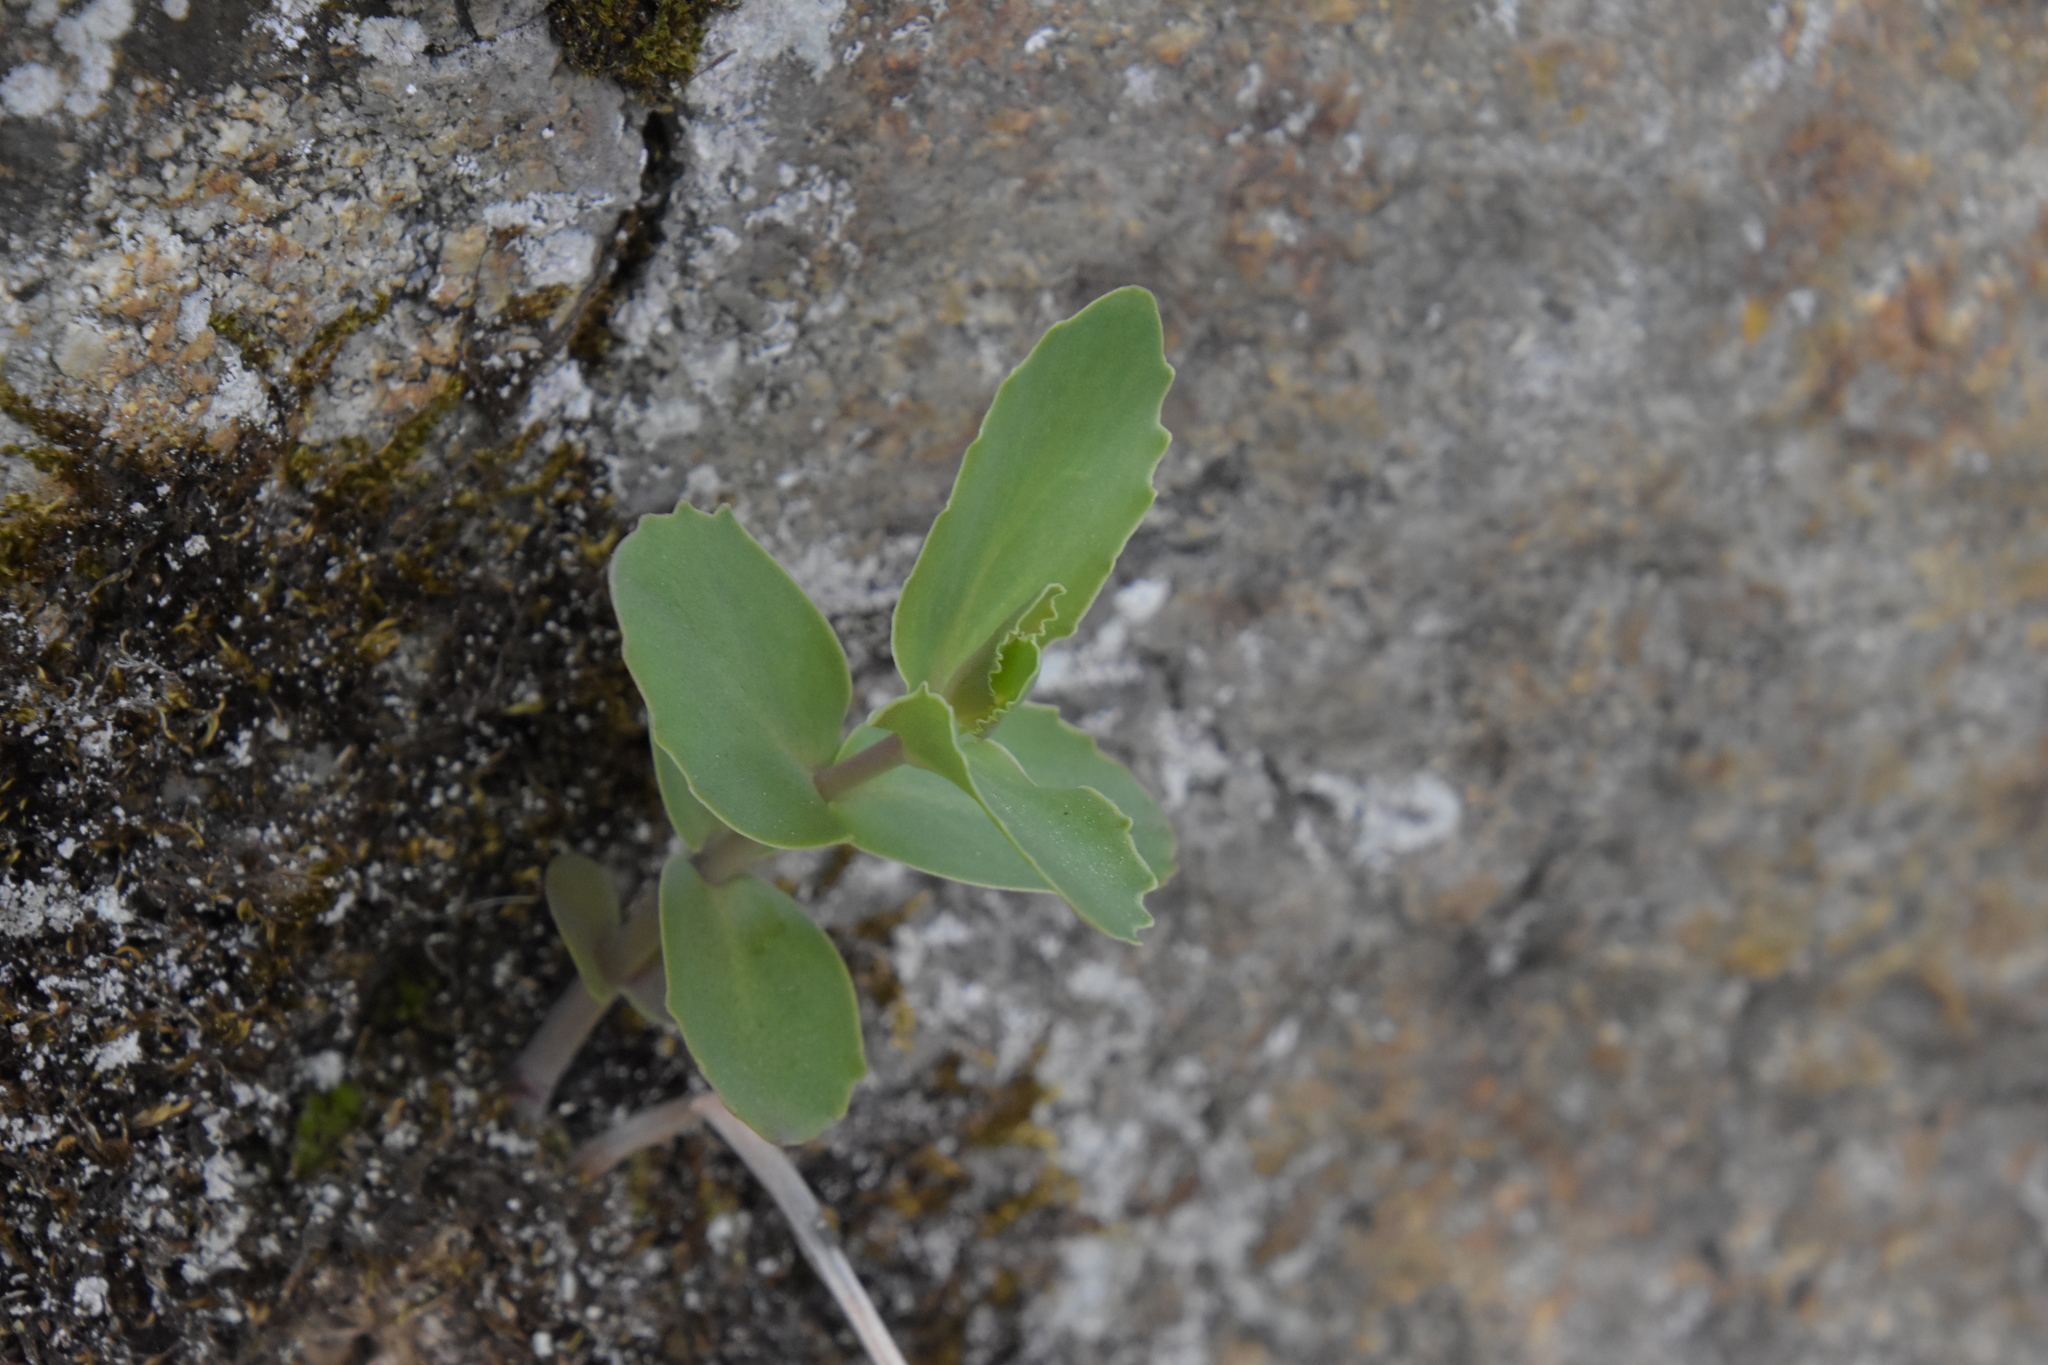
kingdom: Plantae
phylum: Tracheophyta
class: Magnoliopsida
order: Saxifragales
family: Crassulaceae
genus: Hylotelephium
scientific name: Hylotelephium maximum
